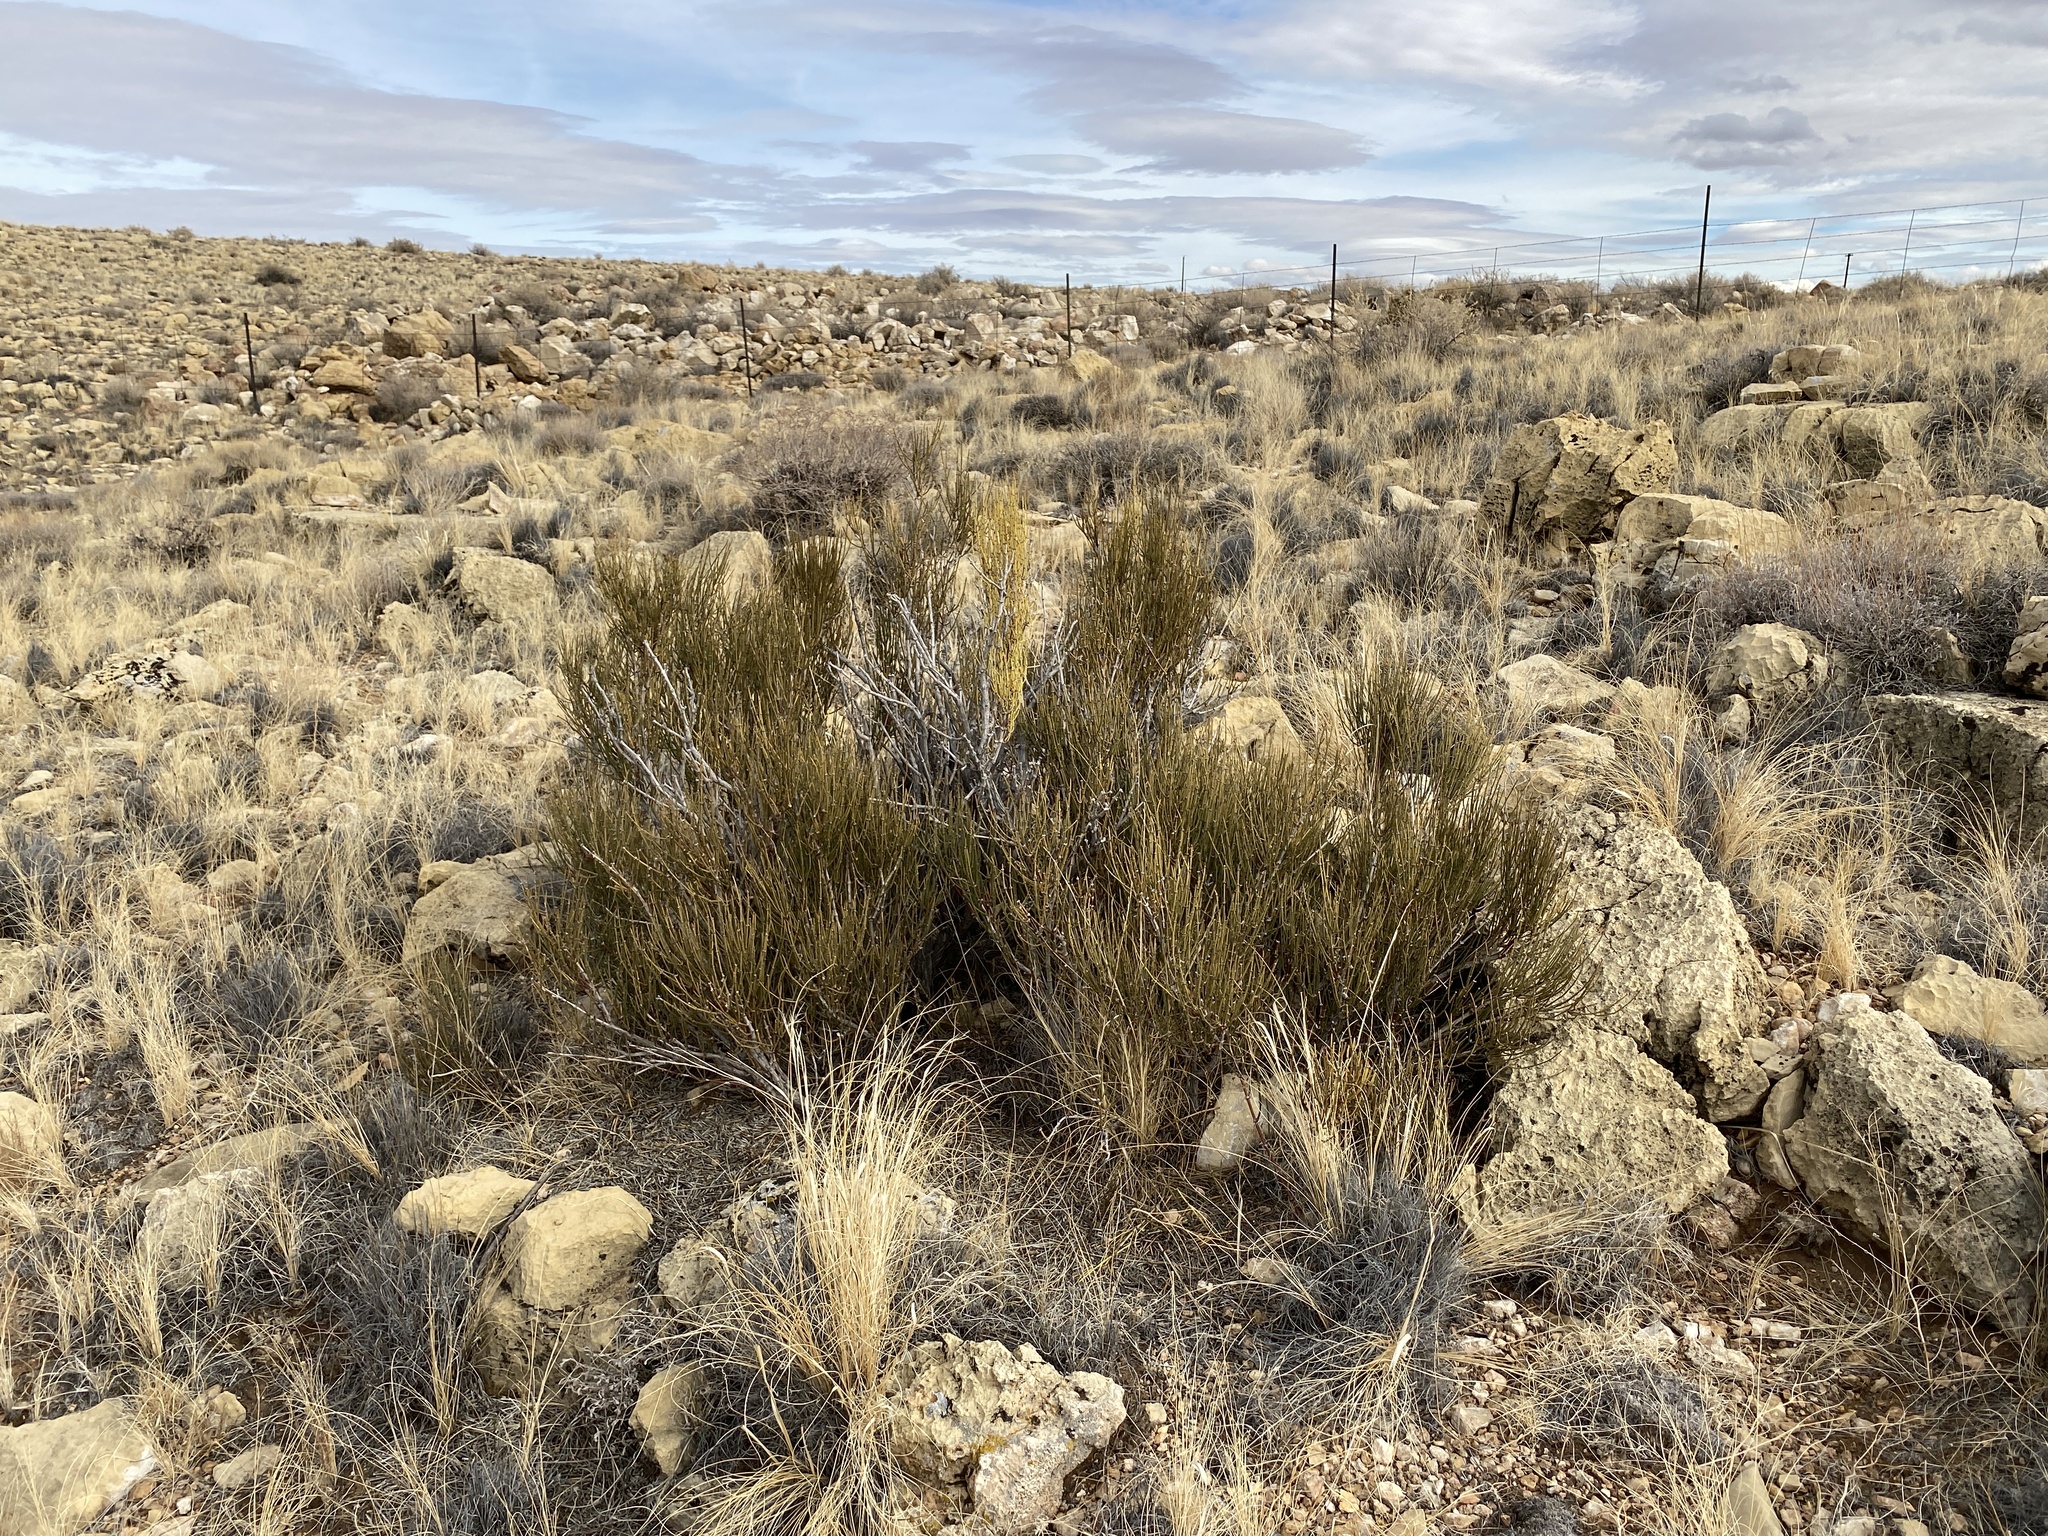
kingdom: Plantae
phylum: Tracheophyta
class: Gnetopsida
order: Ephedrales
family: Ephedraceae
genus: Ephedra
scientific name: Ephedra viridis
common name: Green ephedra
